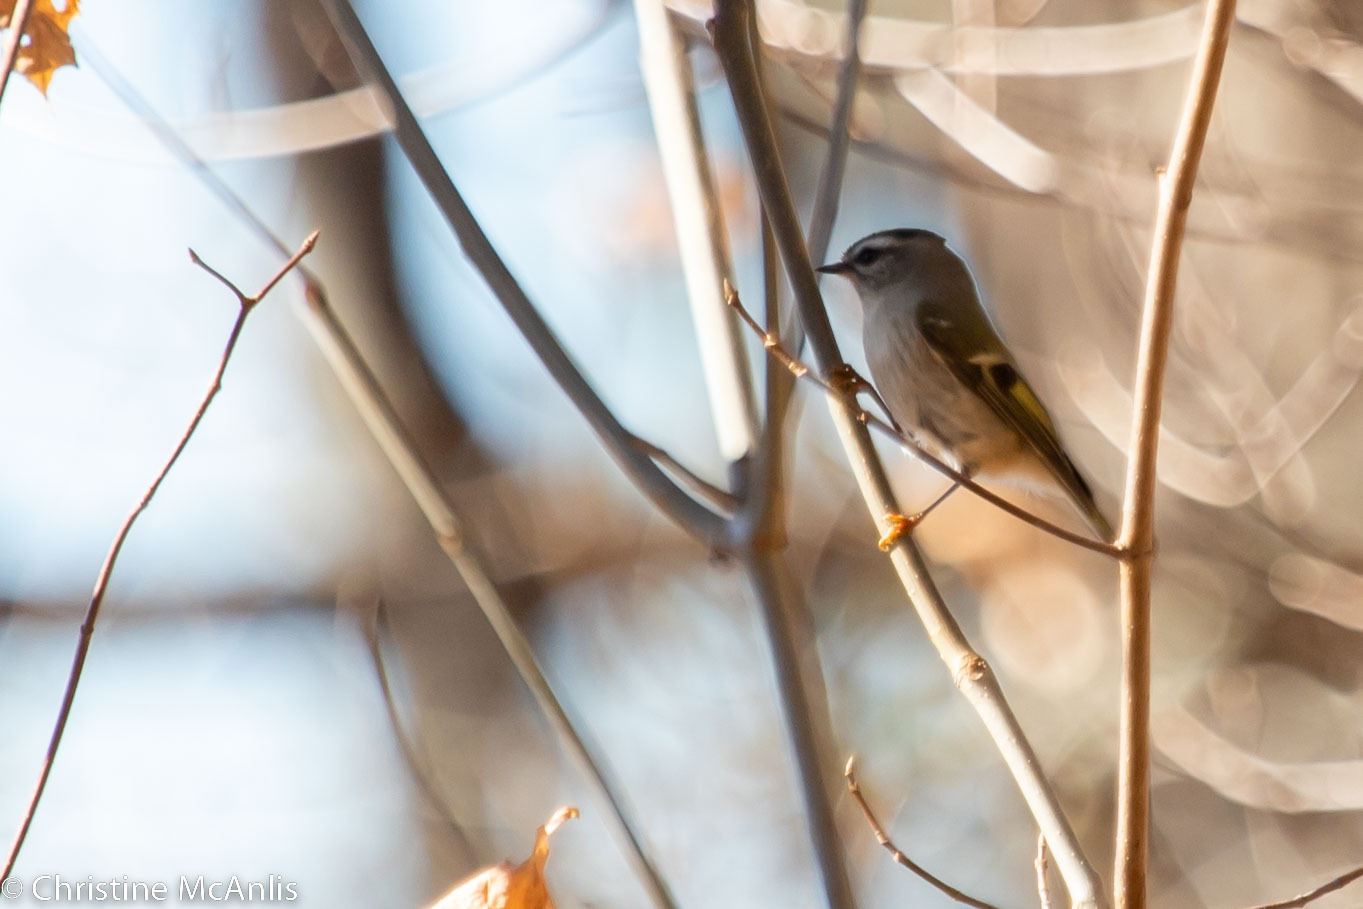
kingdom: Animalia
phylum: Chordata
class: Aves
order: Passeriformes
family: Regulidae
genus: Regulus
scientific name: Regulus satrapa
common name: Golden-crowned kinglet
